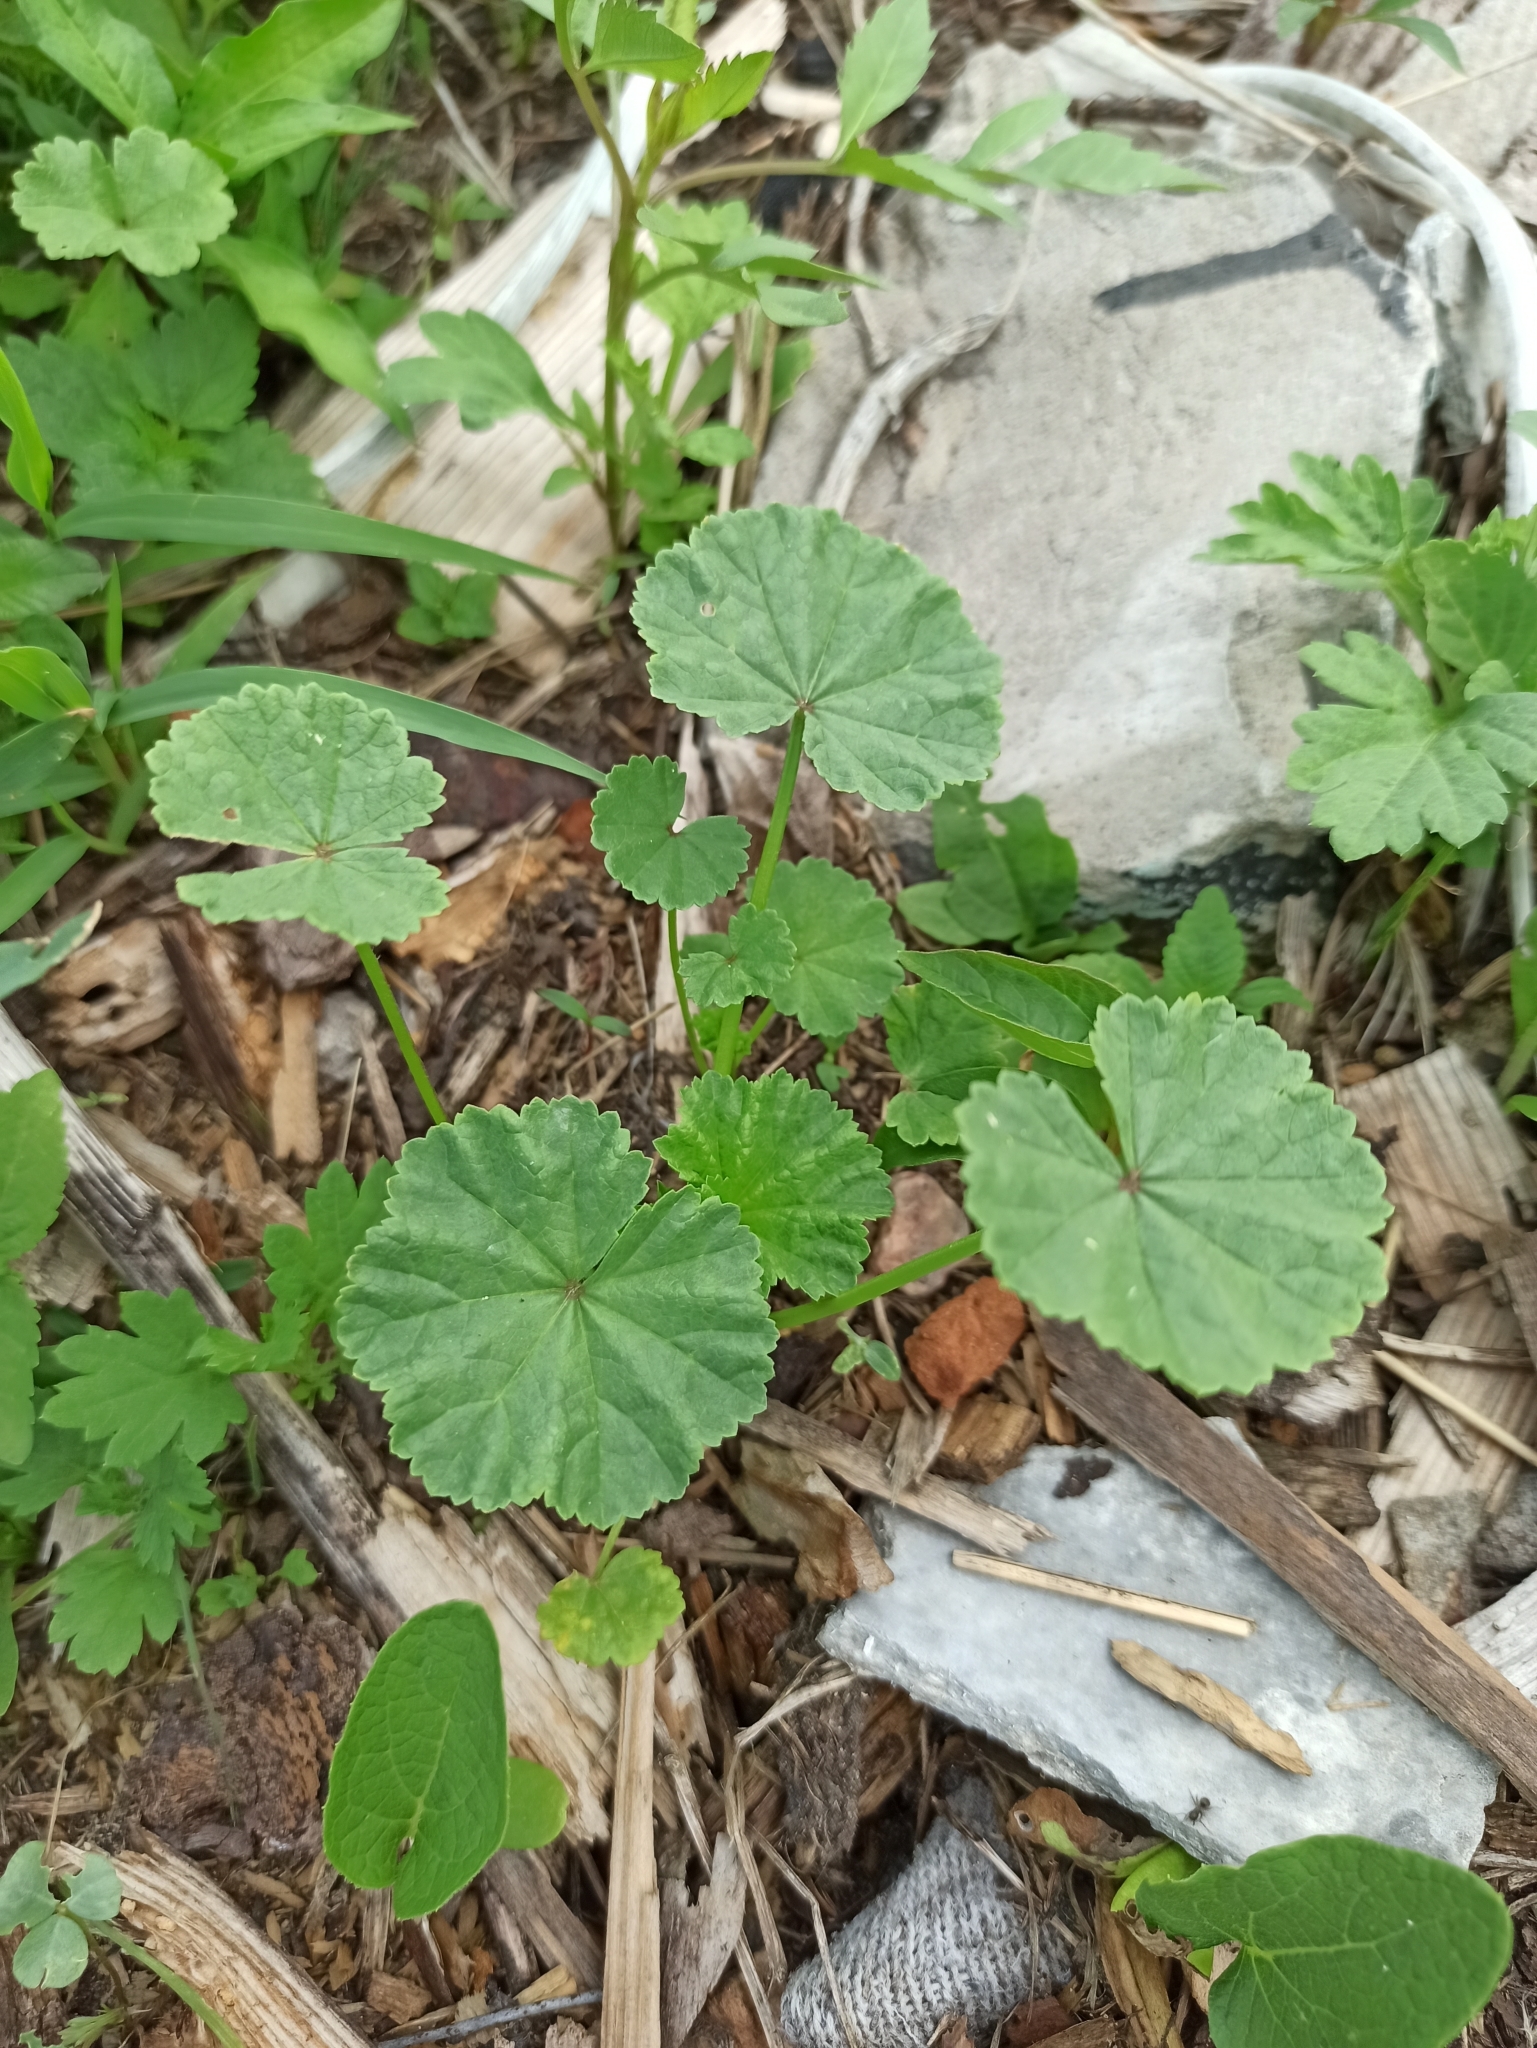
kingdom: Plantae
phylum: Tracheophyta
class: Magnoliopsida
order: Malvales
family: Malvaceae
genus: Malva
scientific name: Malva neglecta
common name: Common mallow
